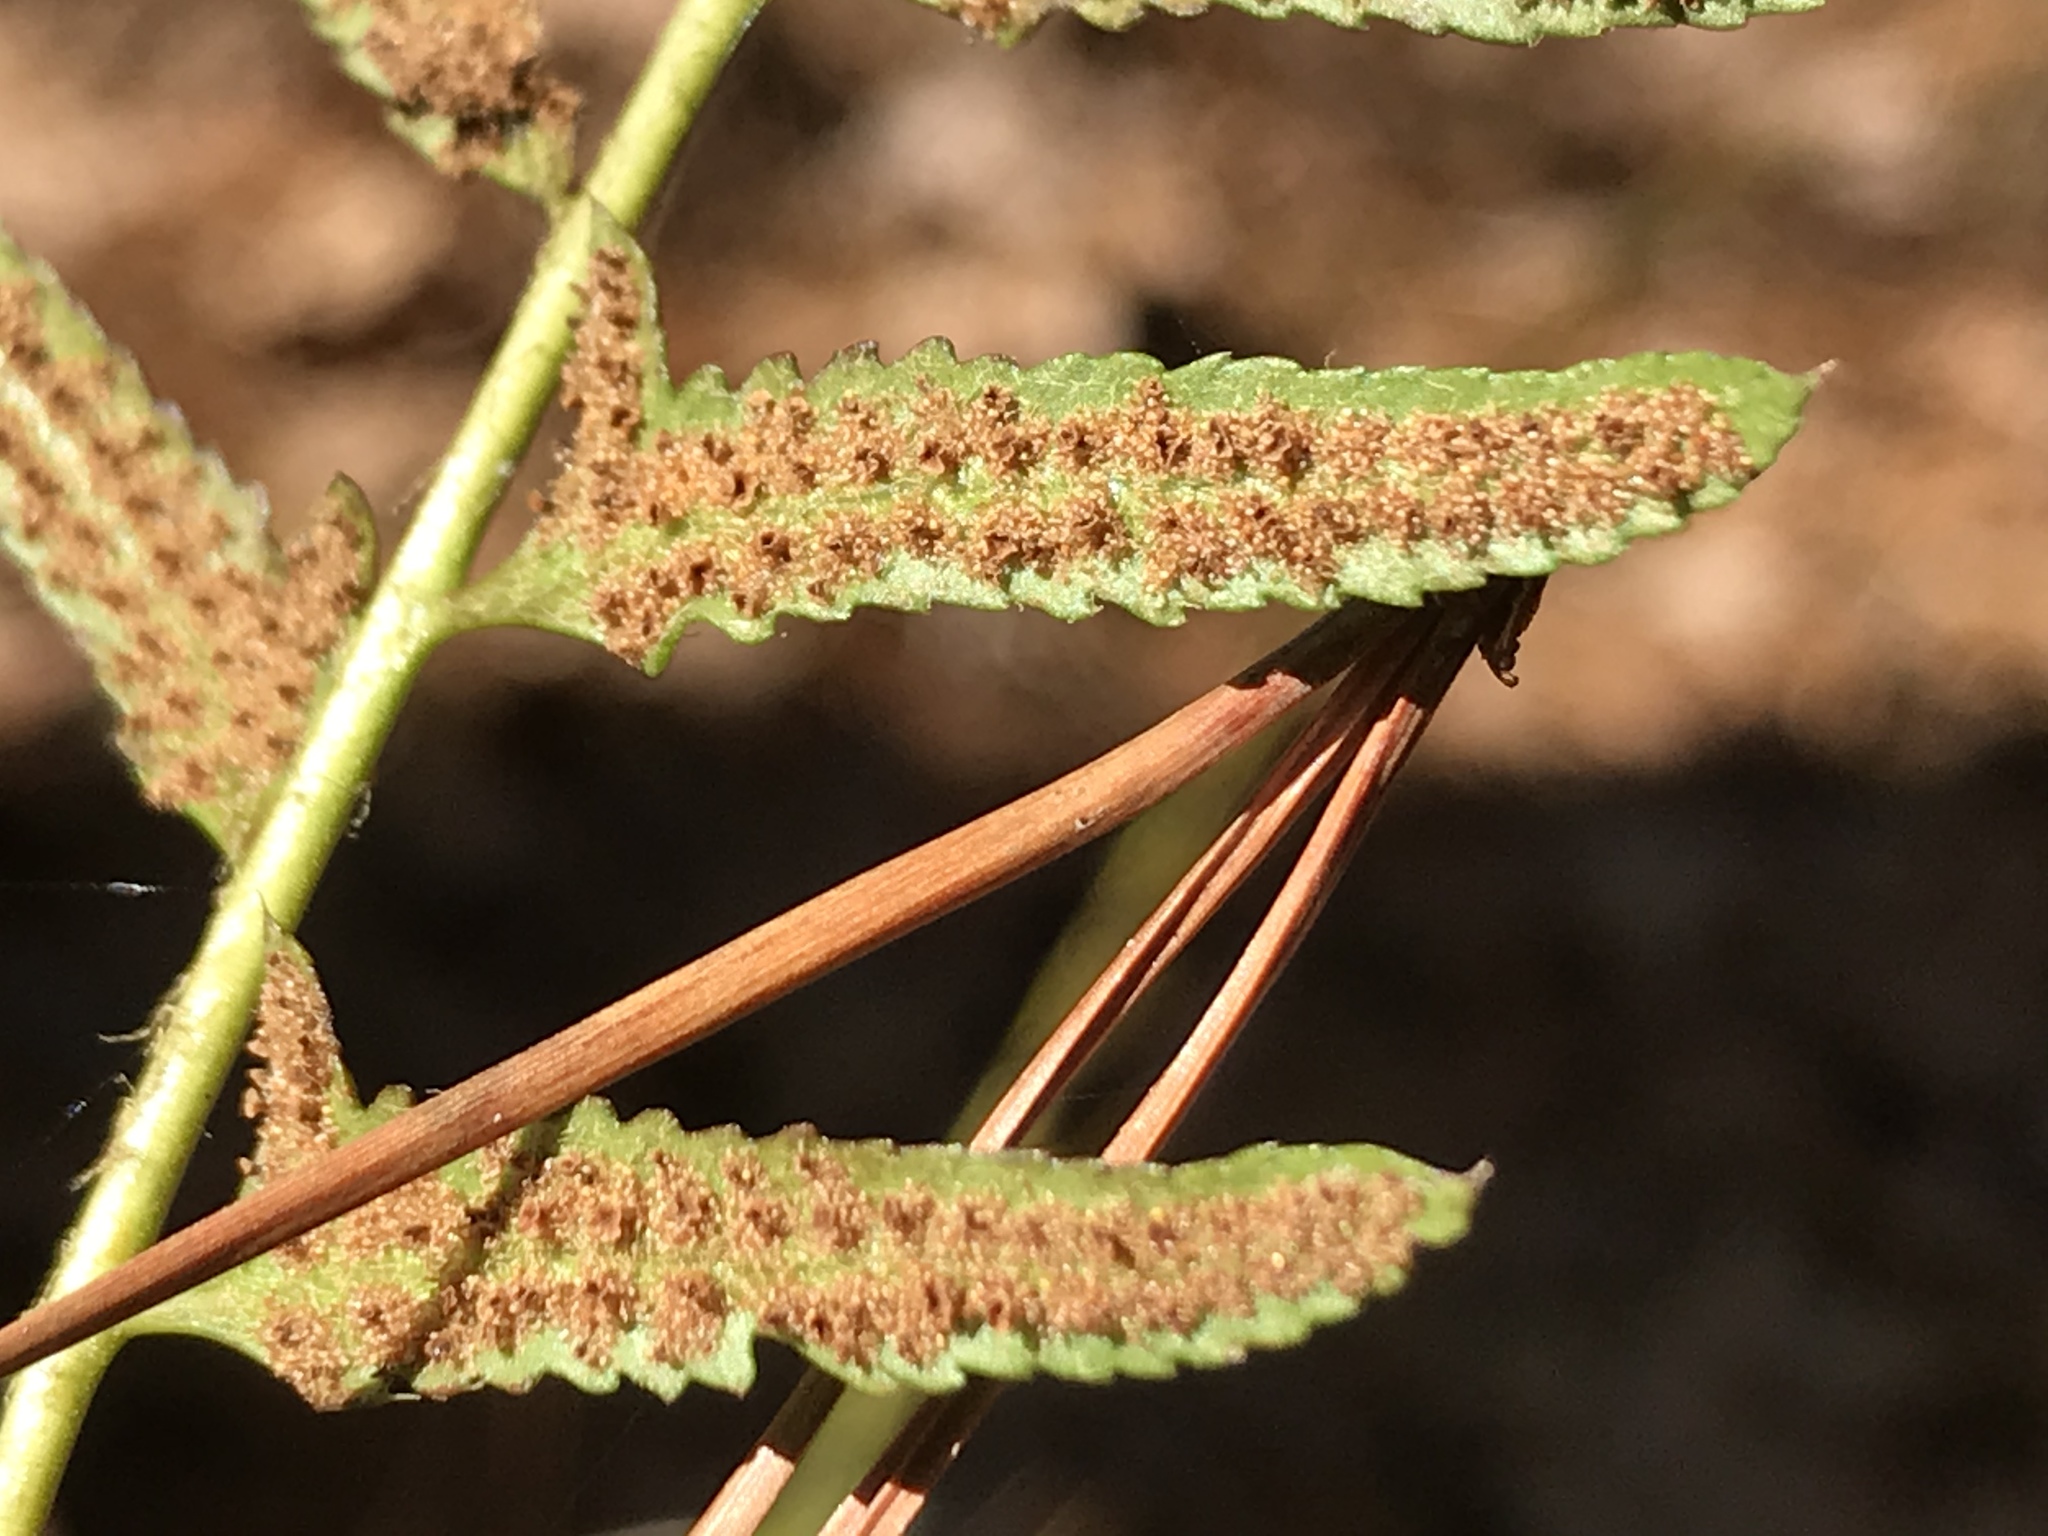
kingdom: Plantae
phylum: Tracheophyta
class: Polypodiopsida
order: Polypodiales
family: Dryopteridaceae
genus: Polystichum
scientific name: Polystichum acrostichoides
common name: Christmas fern
